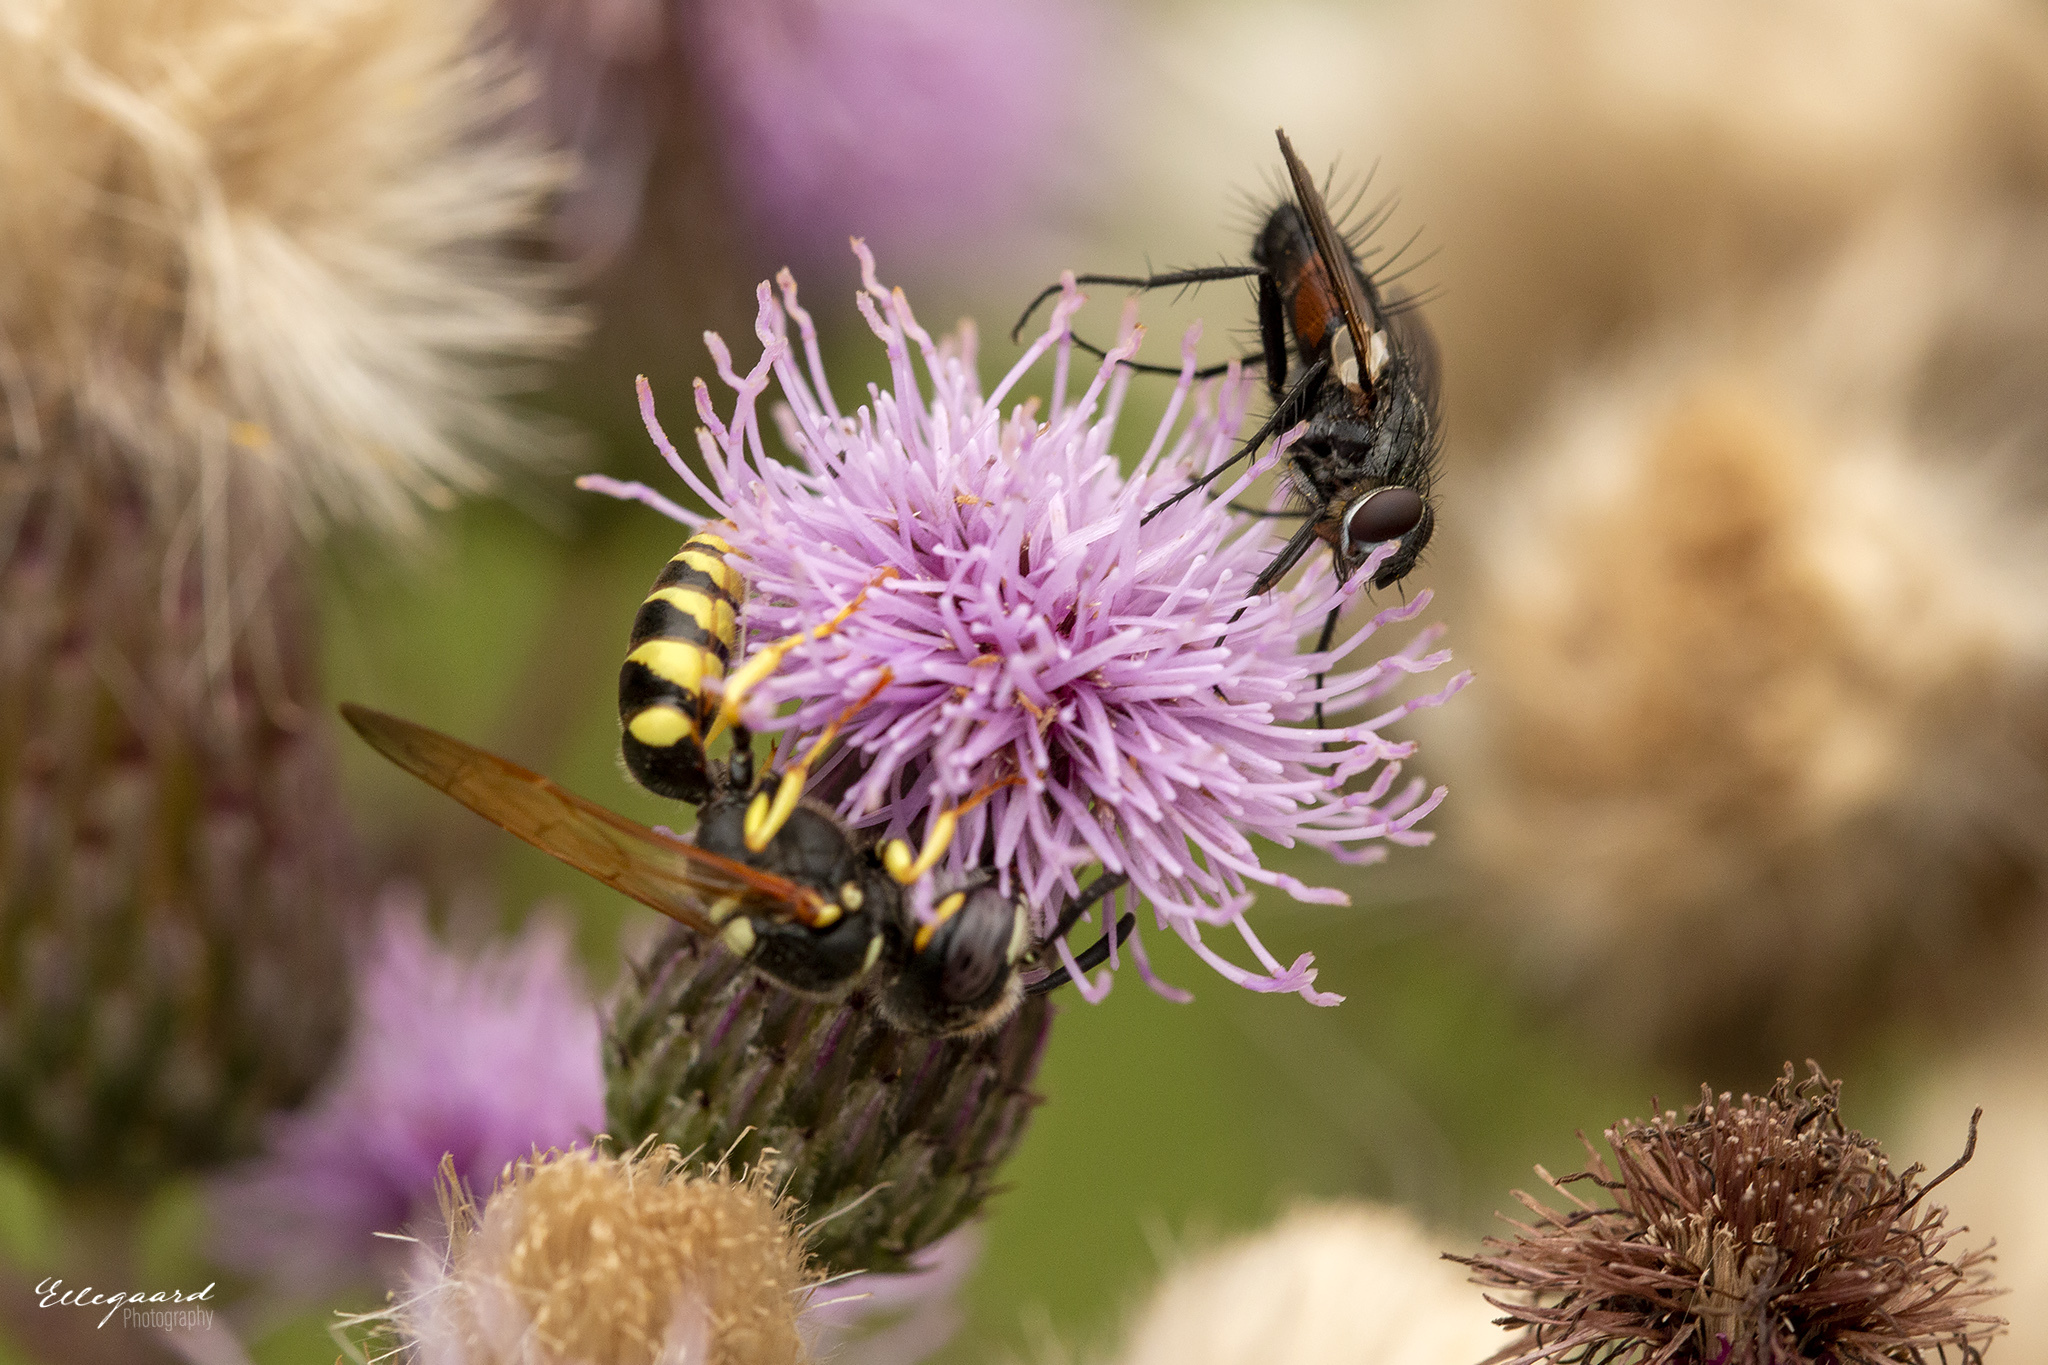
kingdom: Animalia
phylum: Arthropoda
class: Insecta
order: Hymenoptera
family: Crabronidae
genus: Philanthus
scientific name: Philanthus triangulum
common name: Bee wolf
